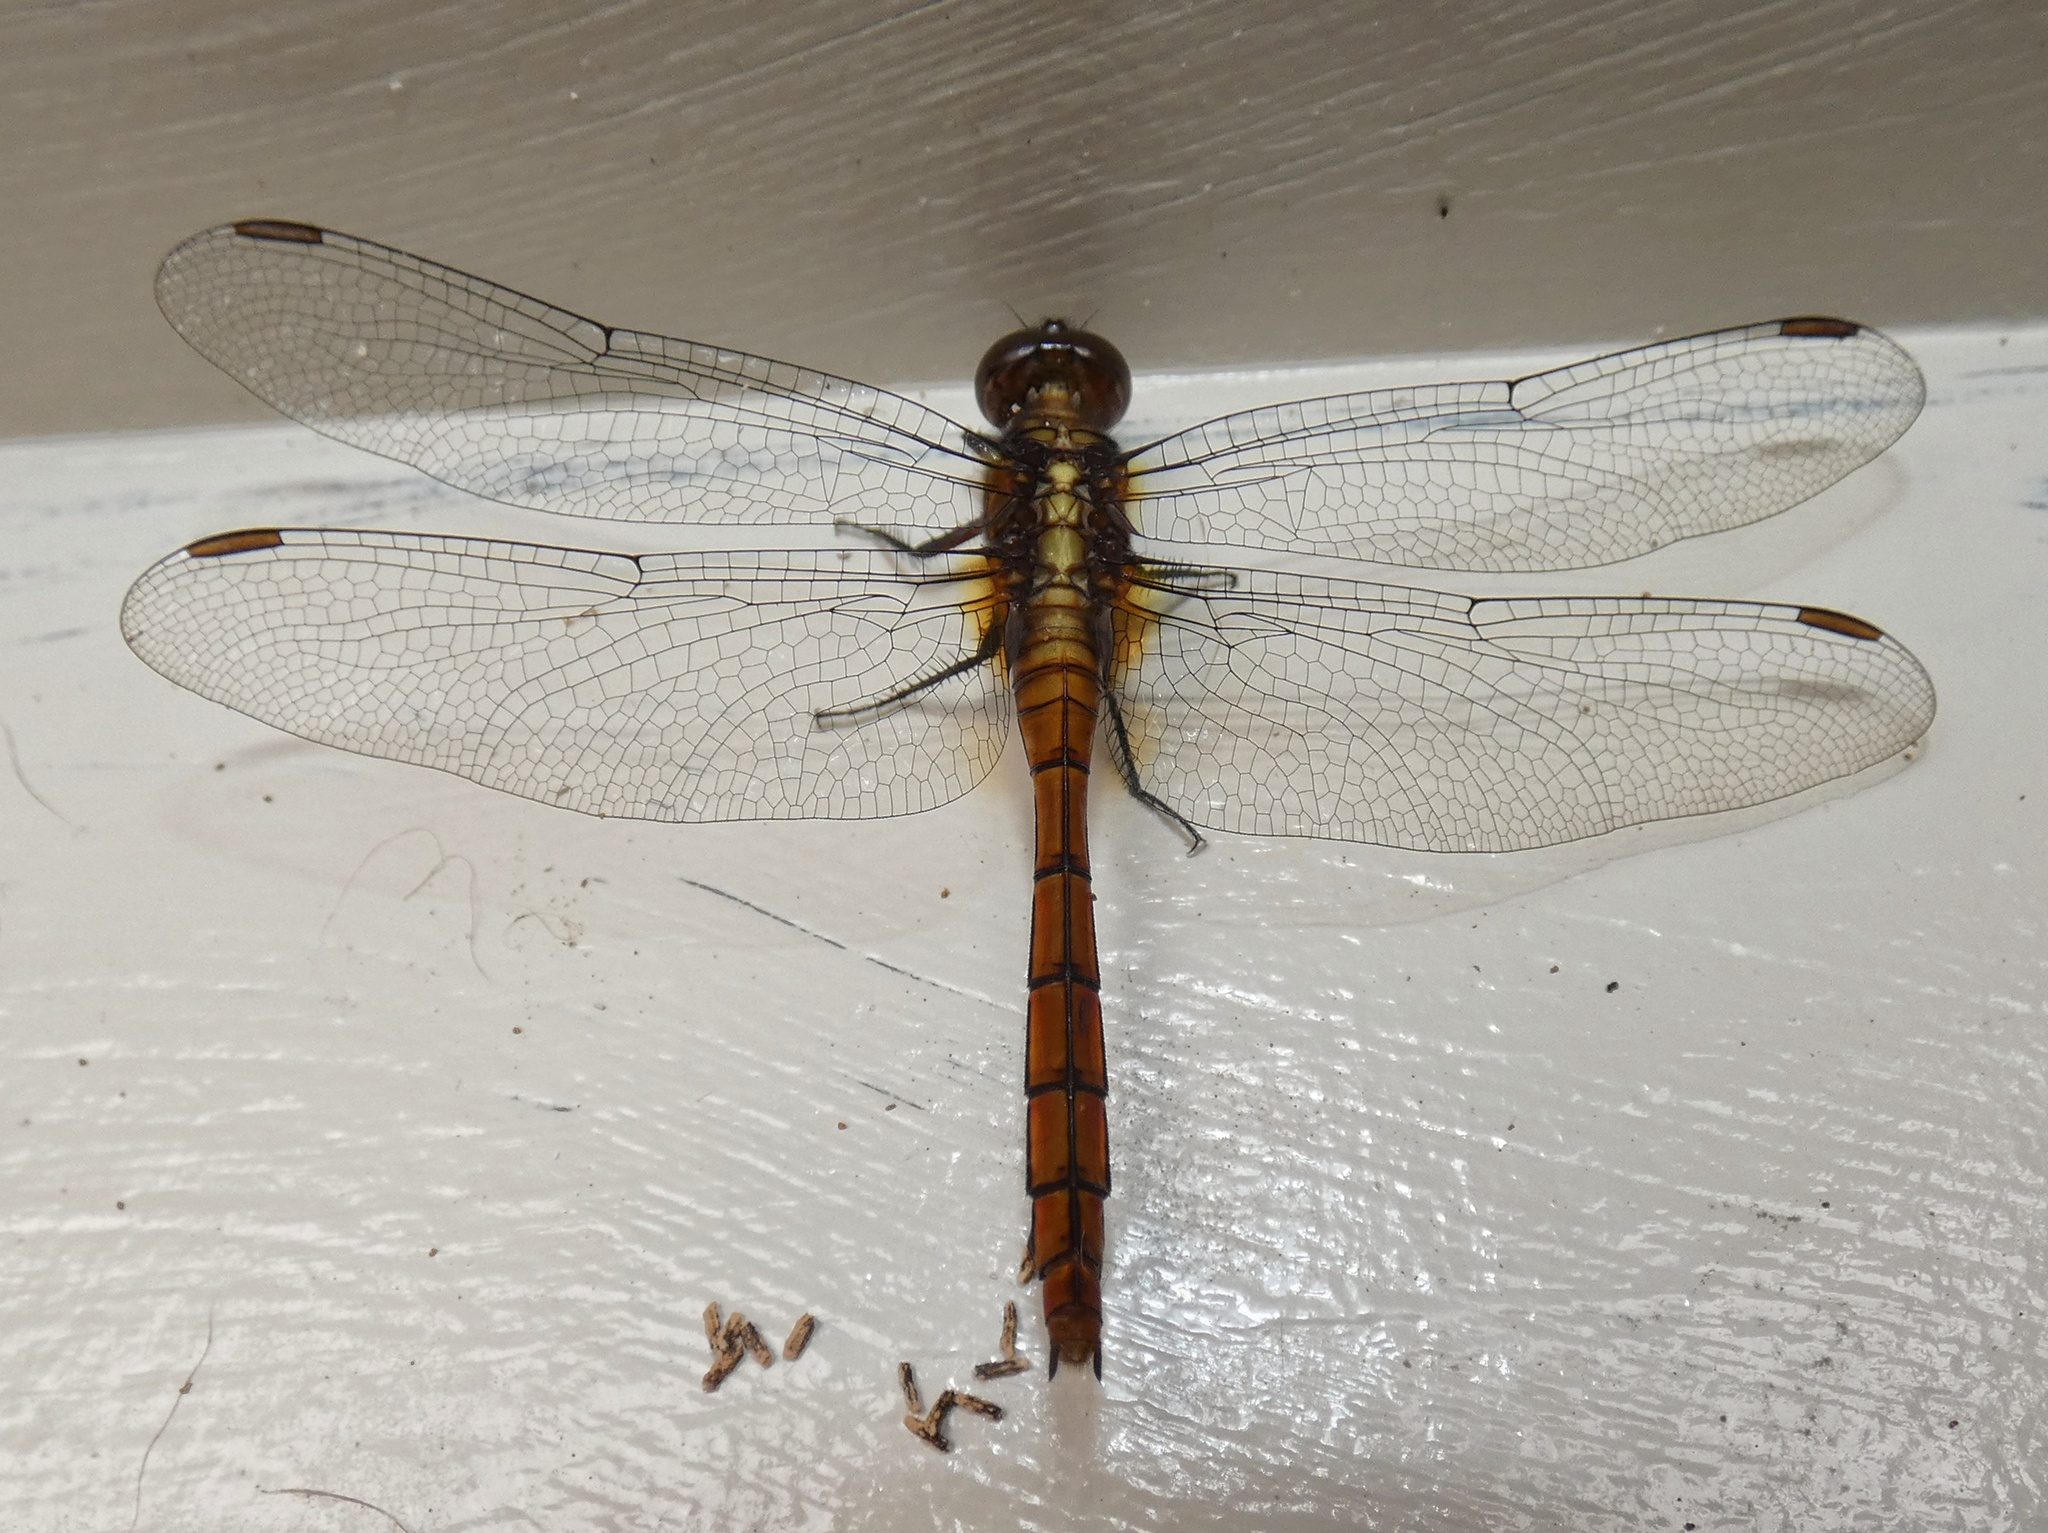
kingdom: Animalia
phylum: Arthropoda
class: Insecta
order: Odonata
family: Libellulidae
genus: Orthetrum
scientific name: Orthetrum villosovittatum
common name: Firery skimmer
